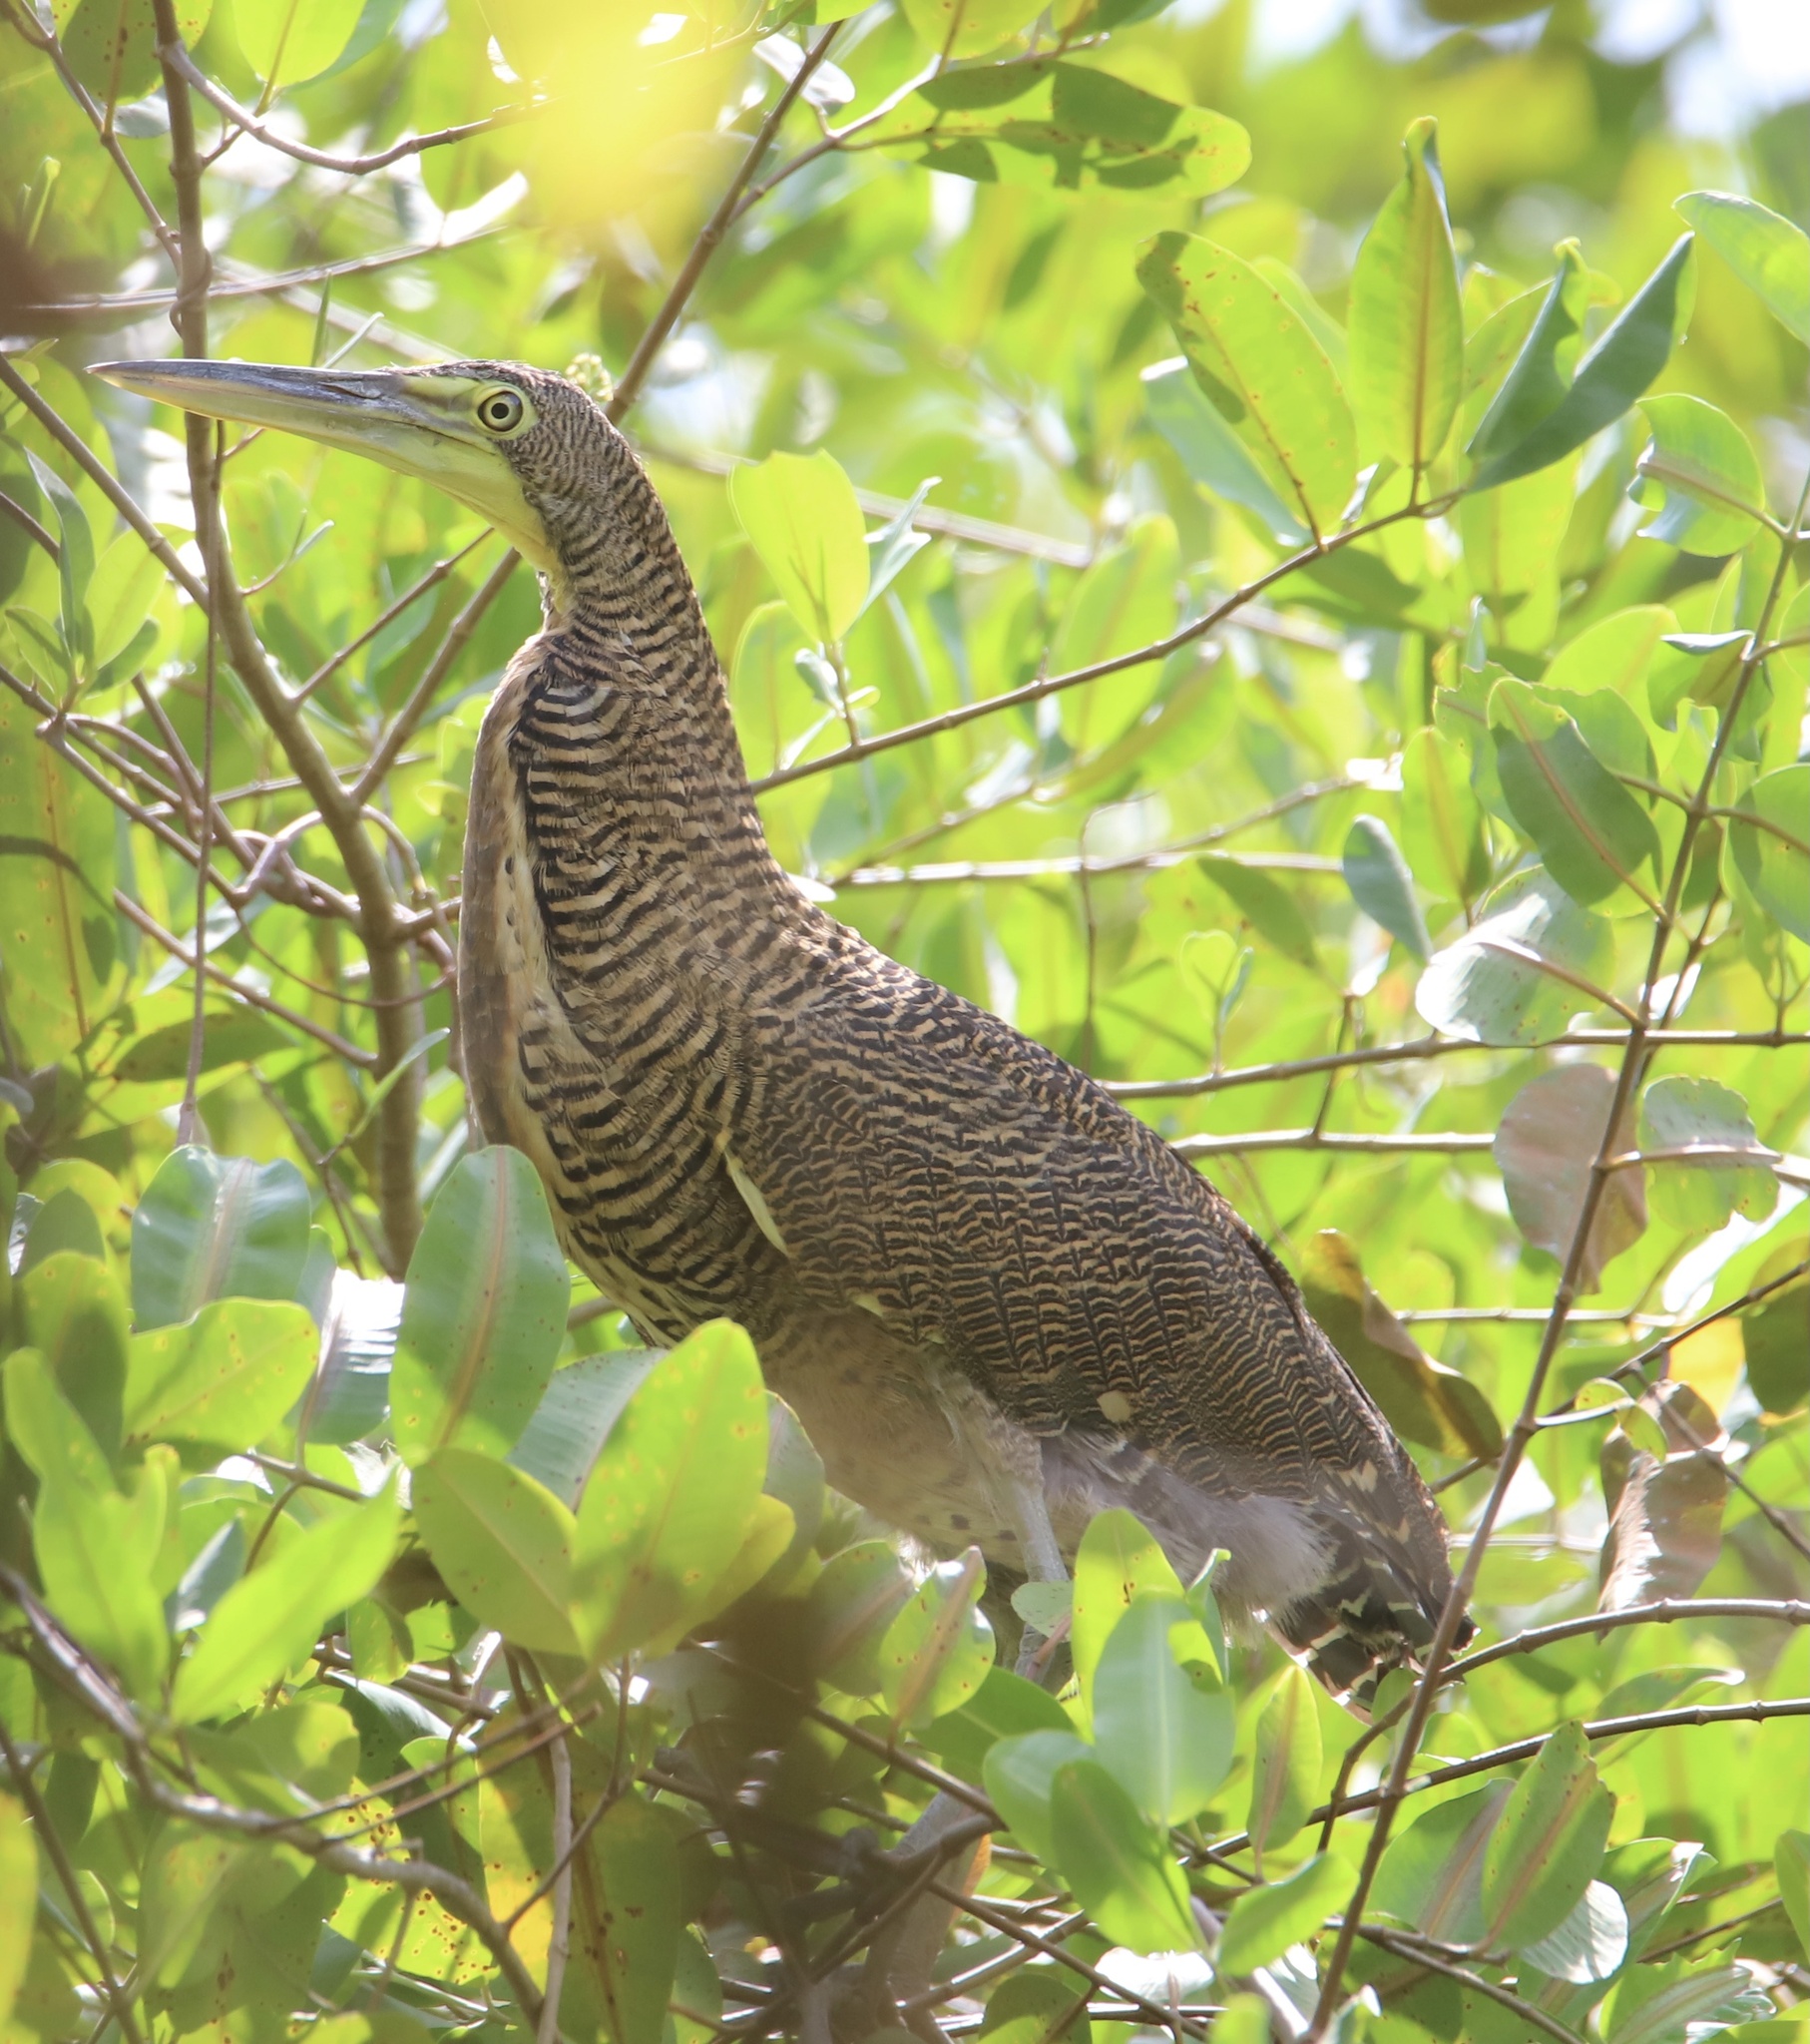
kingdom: Animalia
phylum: Chordata
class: Aves
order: Pelecaniformes
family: Ardeidae
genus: Tigrisoma
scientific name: Tigrisoma mexicanum
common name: Bare-throated tiger-heron
